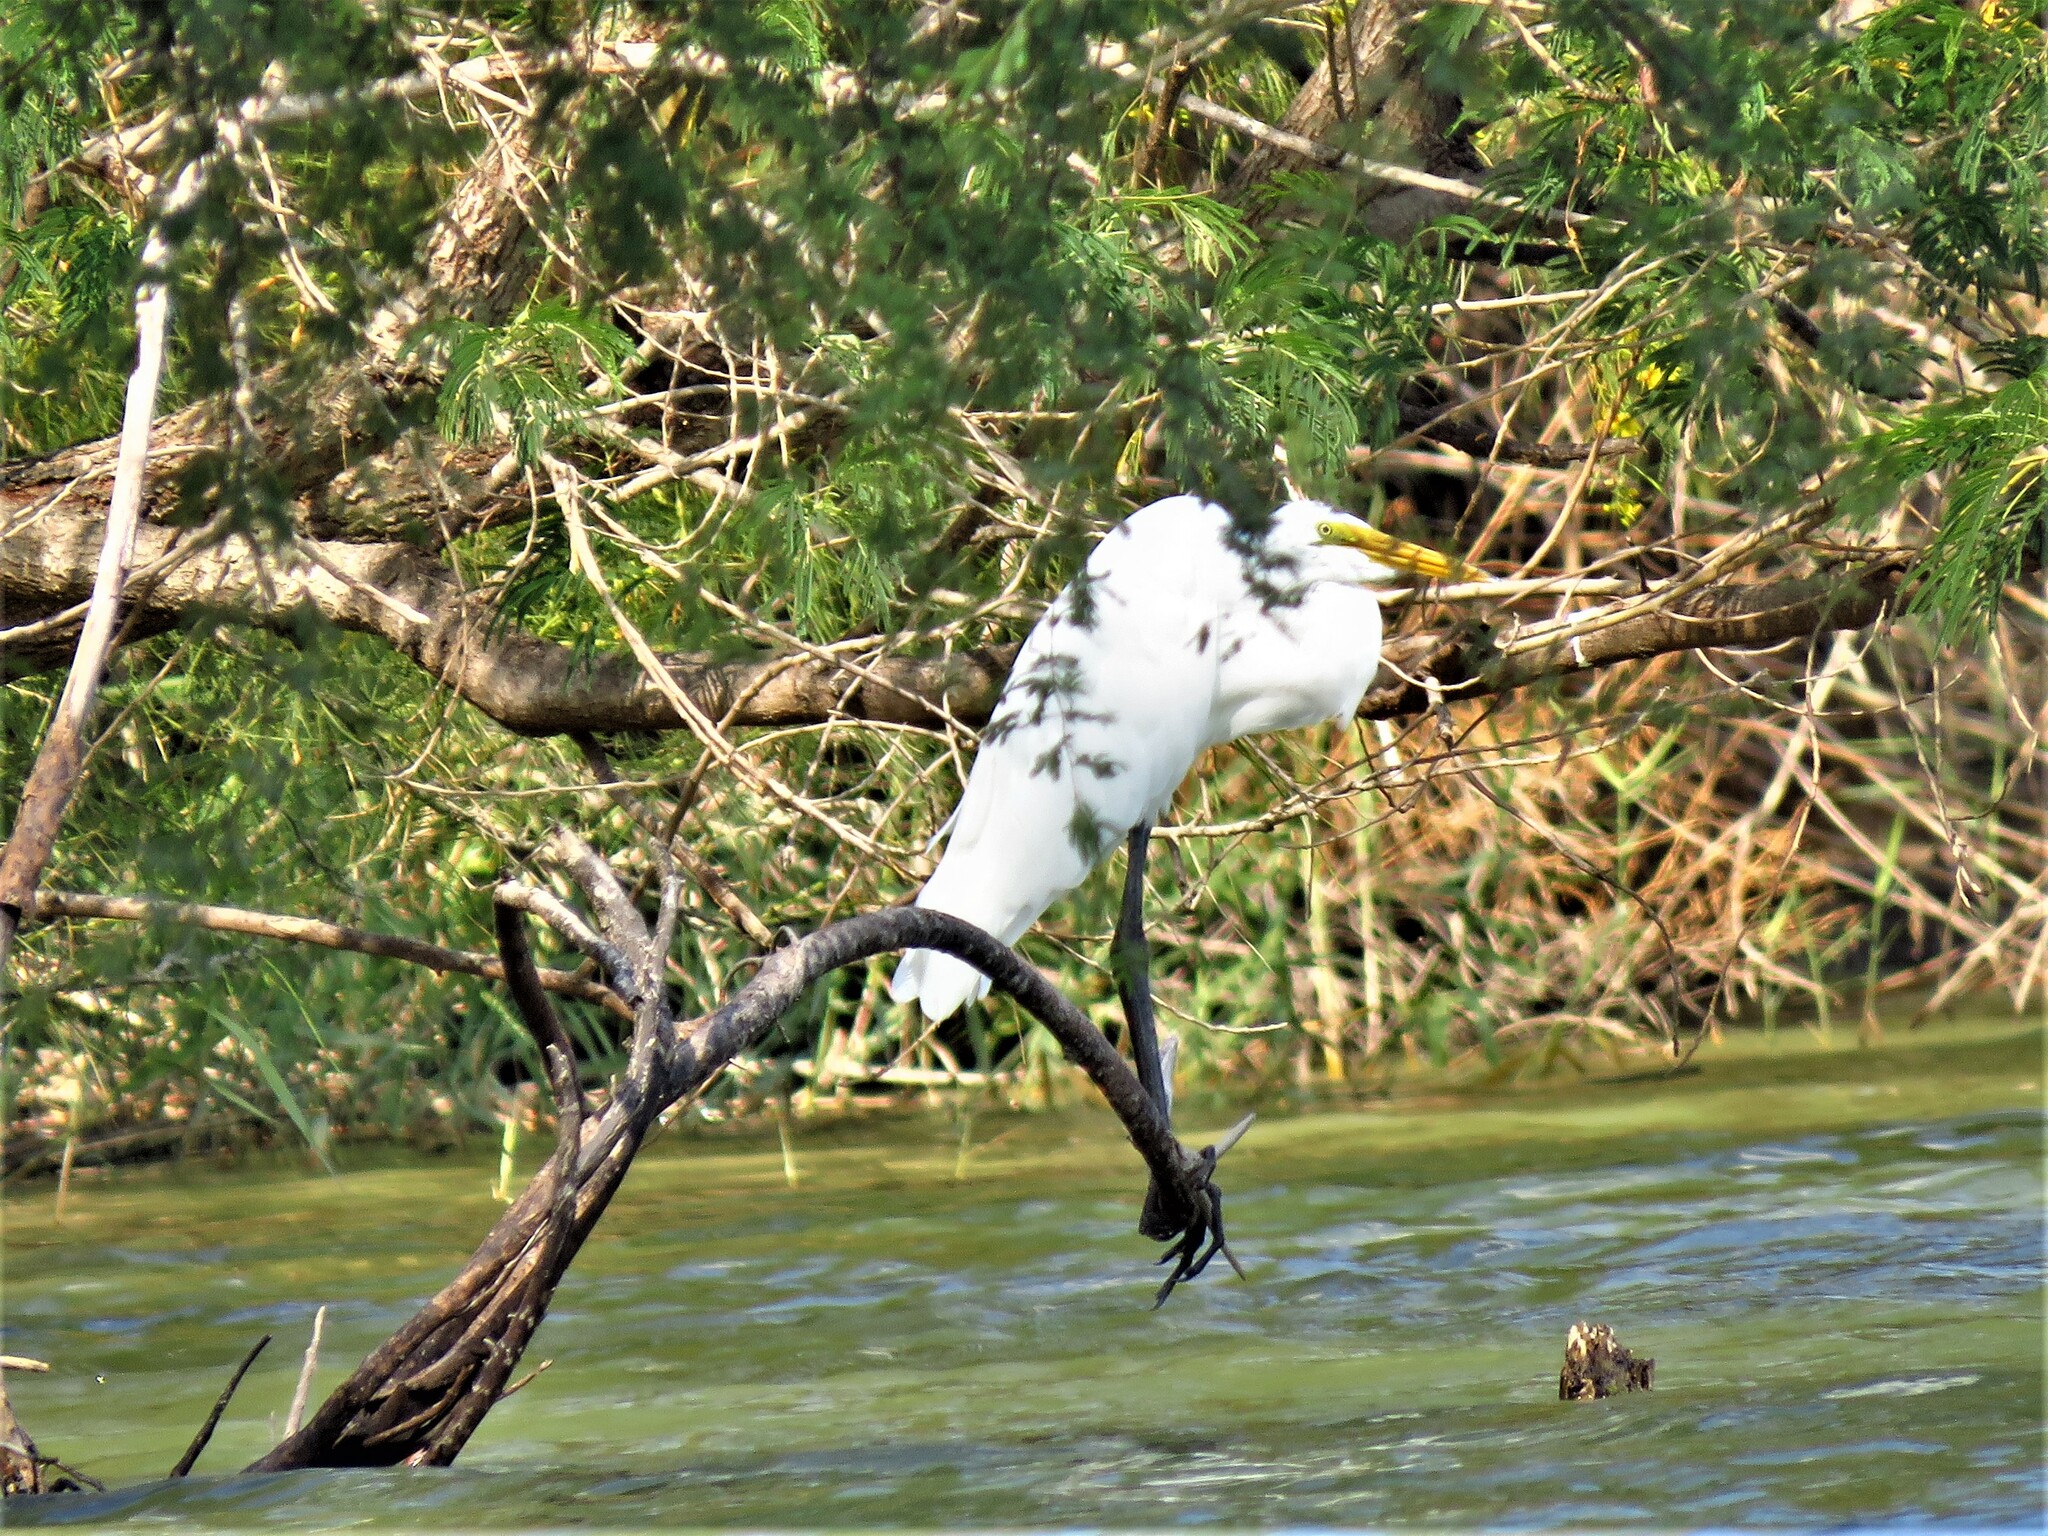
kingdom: Animalia
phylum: Chordata
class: Aves
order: Pelecaniformes
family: Ardeidae
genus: Ardea
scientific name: Ardea alba
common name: Great egret
